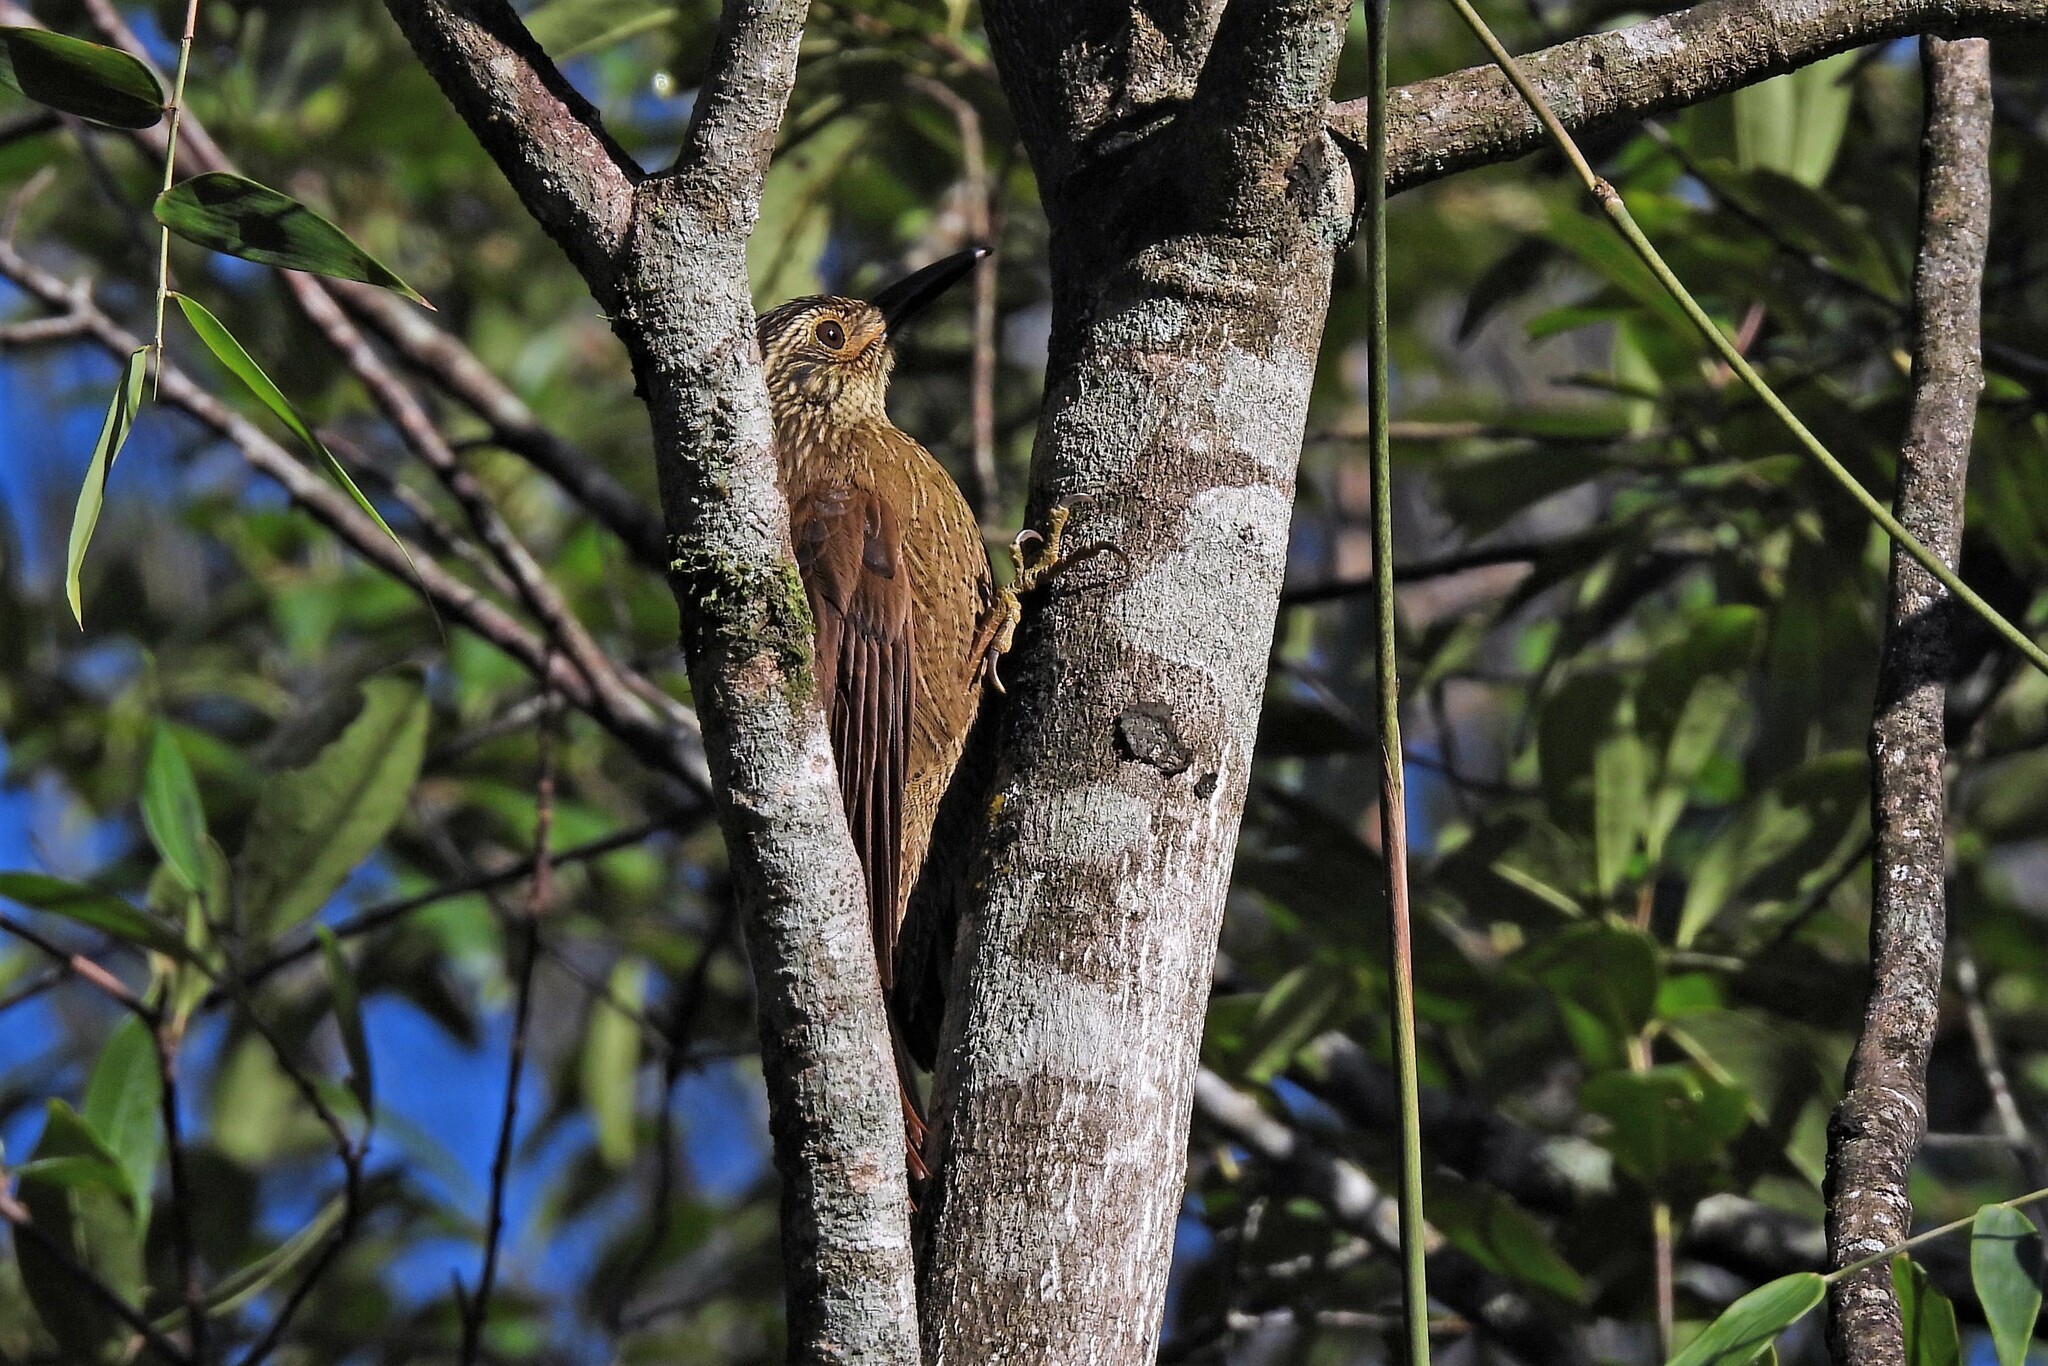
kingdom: Animalia
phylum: Chordata
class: Aves
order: Passeriformes
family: Furnariidae
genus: Dendrocolaptes
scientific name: Dendrocolaptes platyrostris
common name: Planalto woodcreeper
